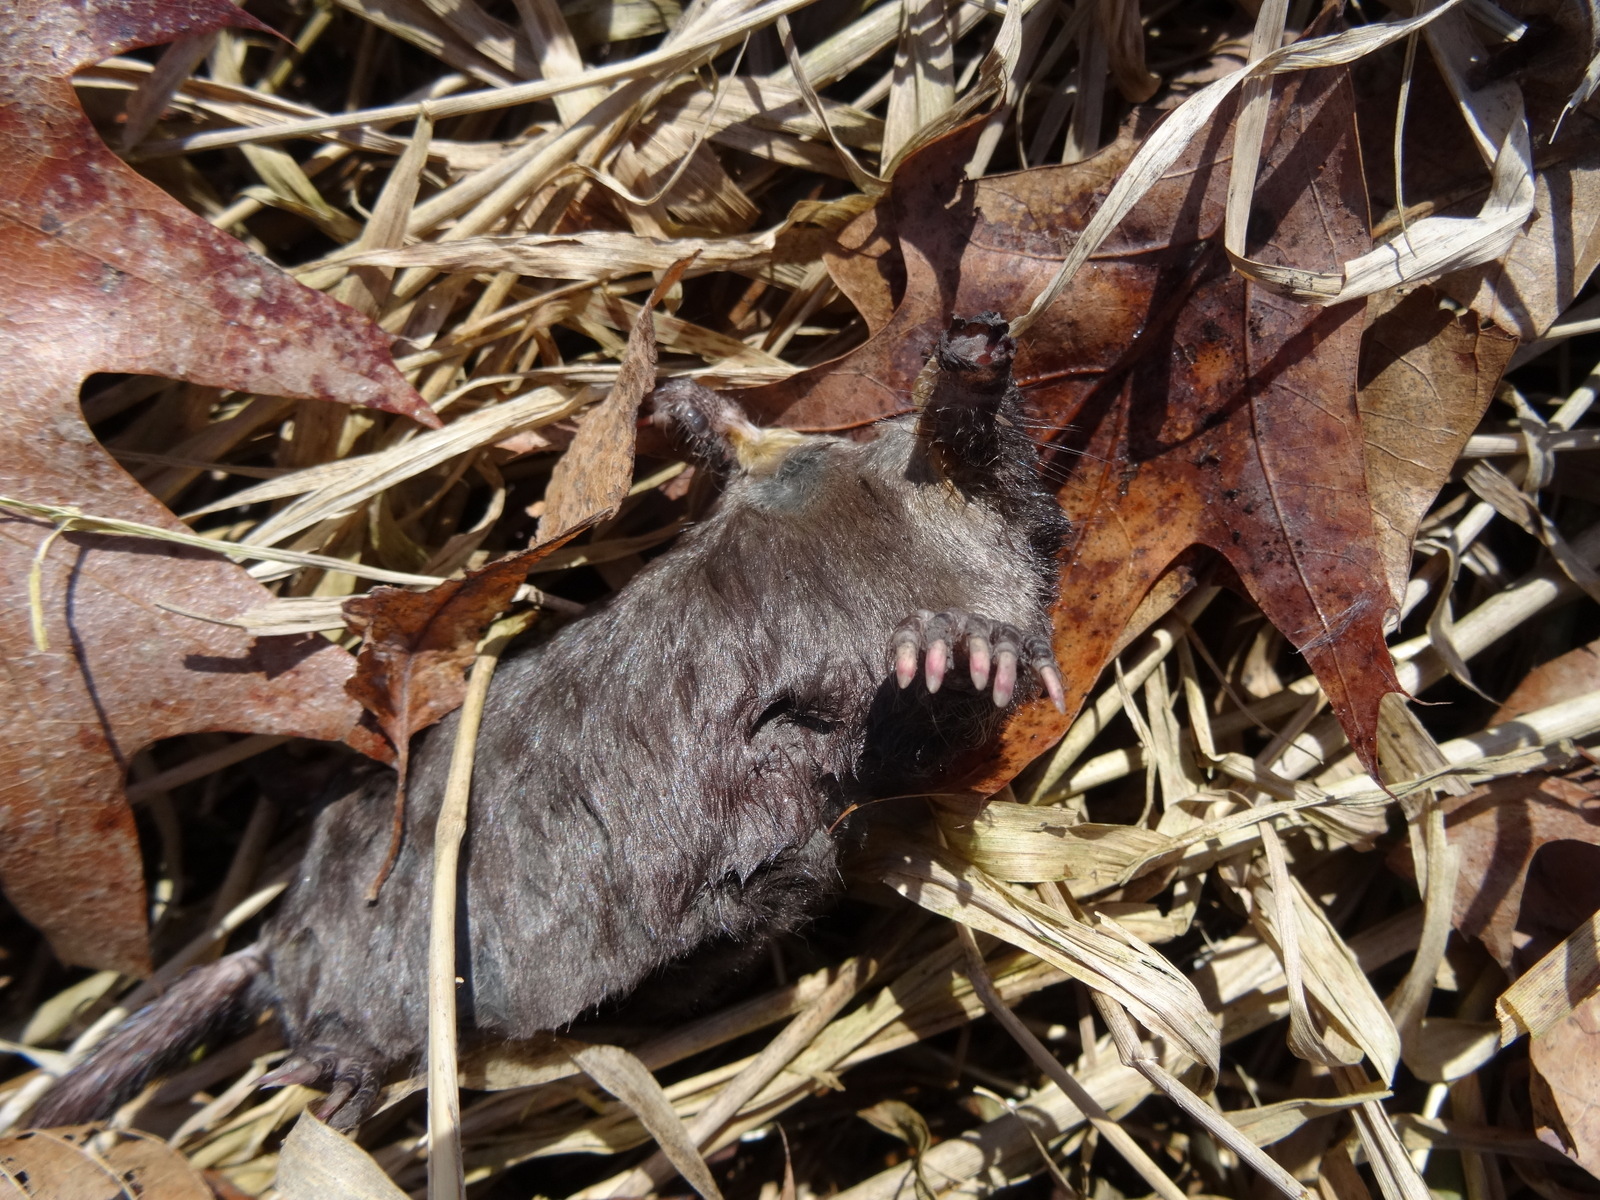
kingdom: Animalia
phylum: Chordata
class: Mammalia
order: Soricomorpha
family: Talpidae
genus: Scalopus
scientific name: Scalopus aquaticus
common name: Eastern mole
